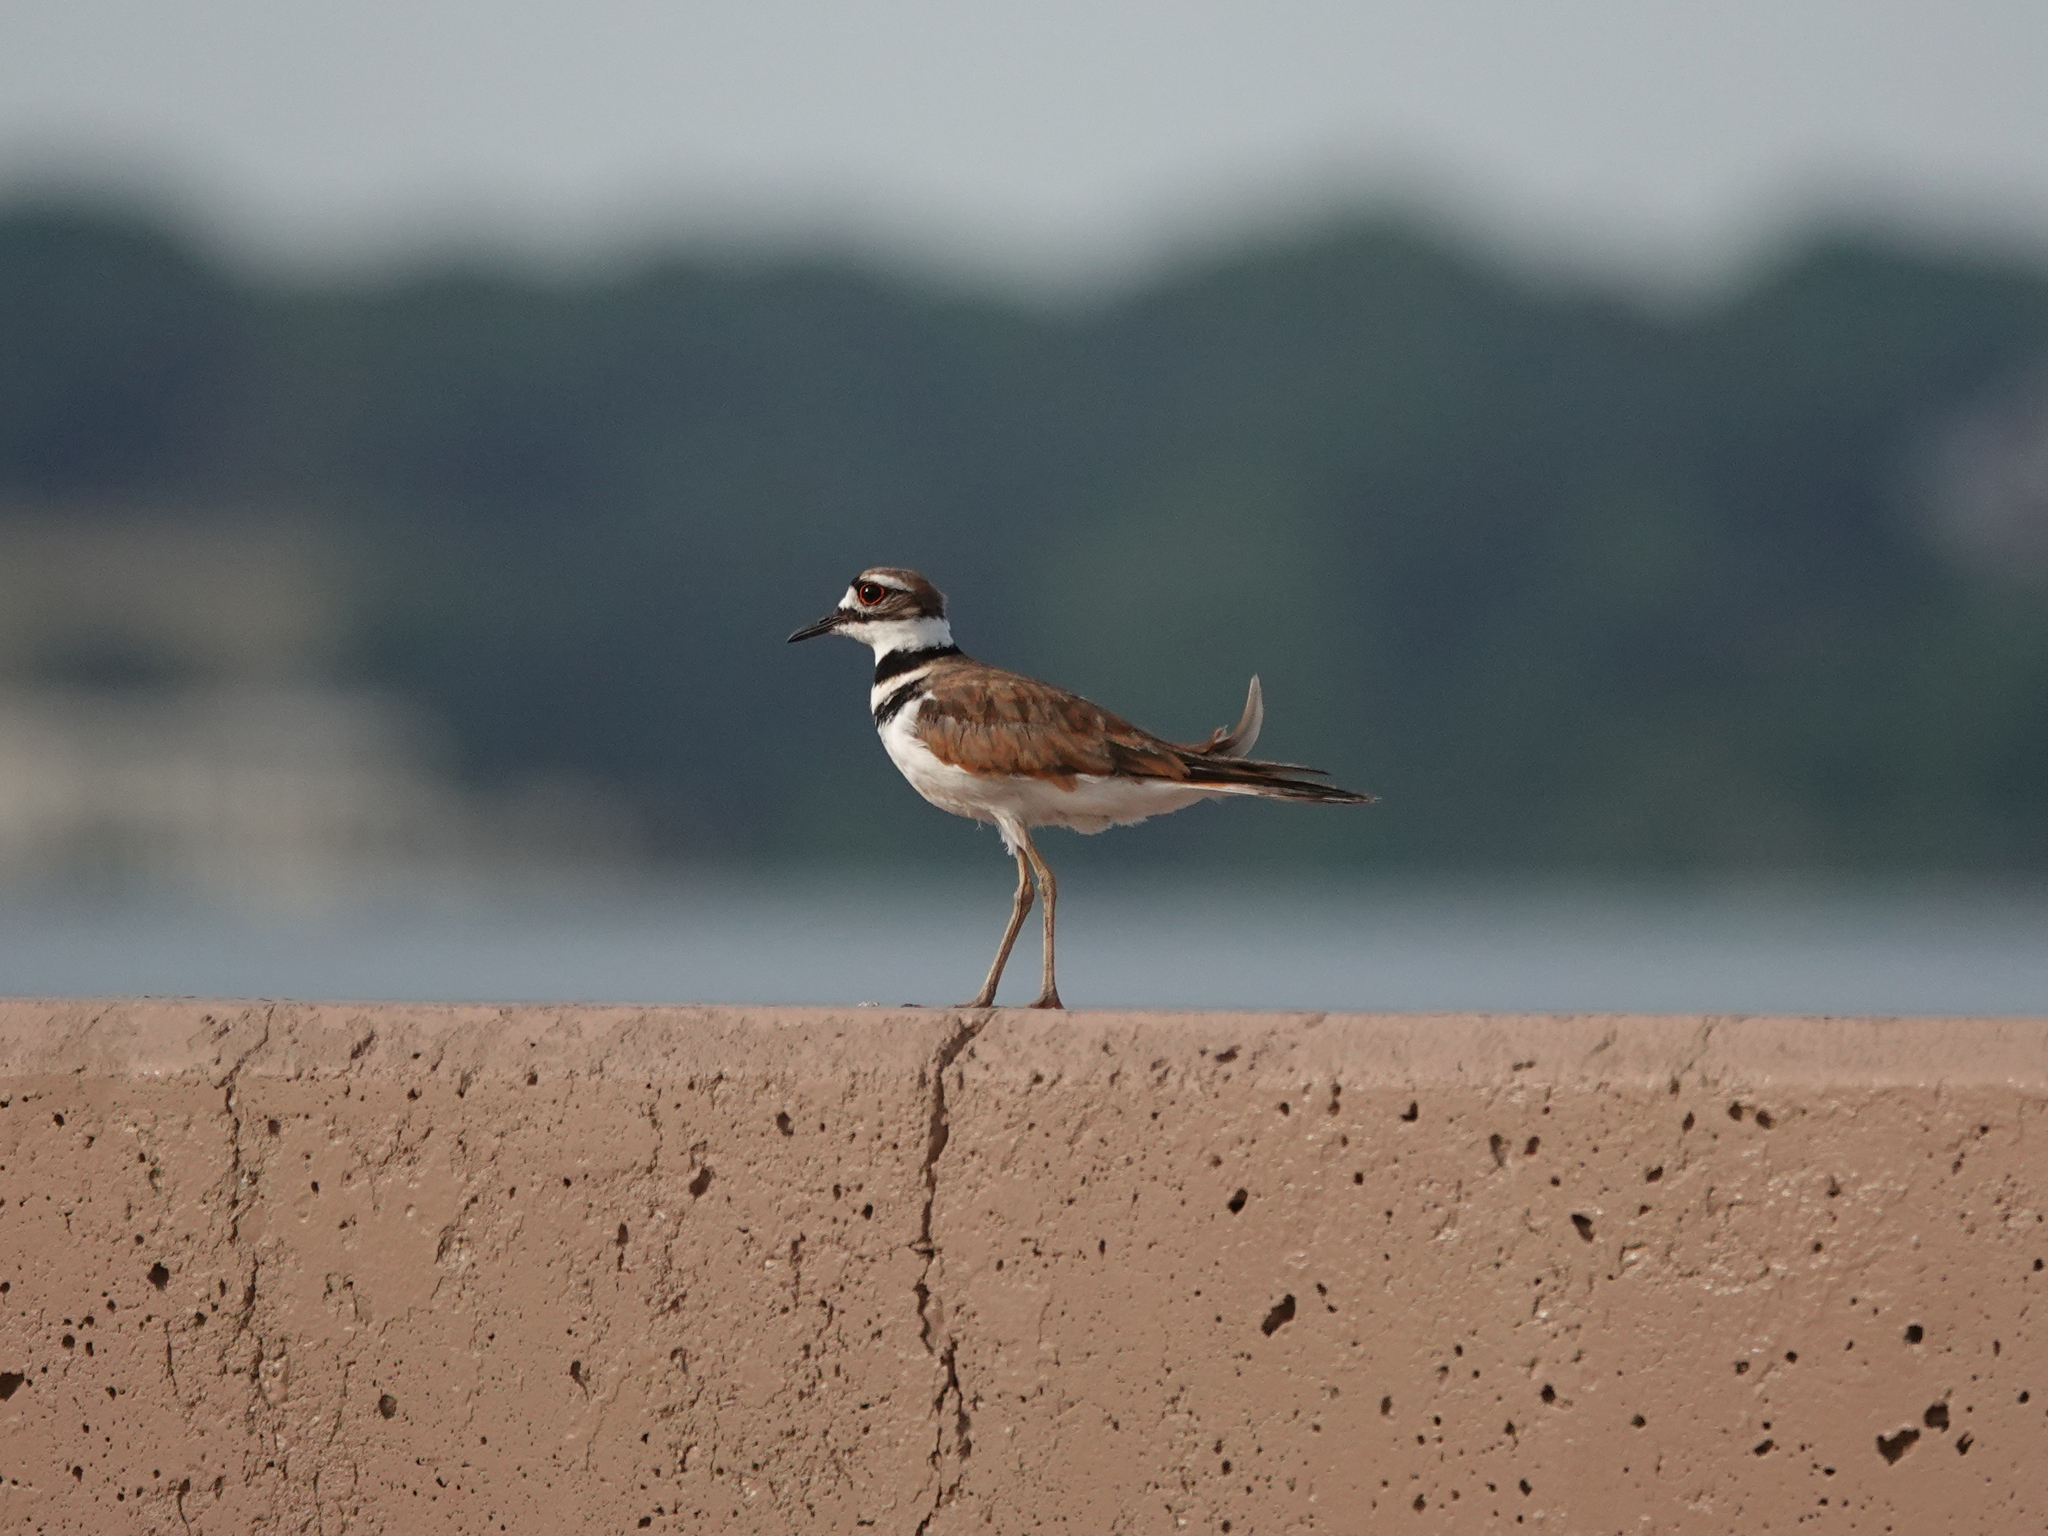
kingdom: Animalia
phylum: Chordata
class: Aves
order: Charadriiformes
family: Charadriidae
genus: Charadrius
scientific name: Charadrius vociferus
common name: Killdeer
